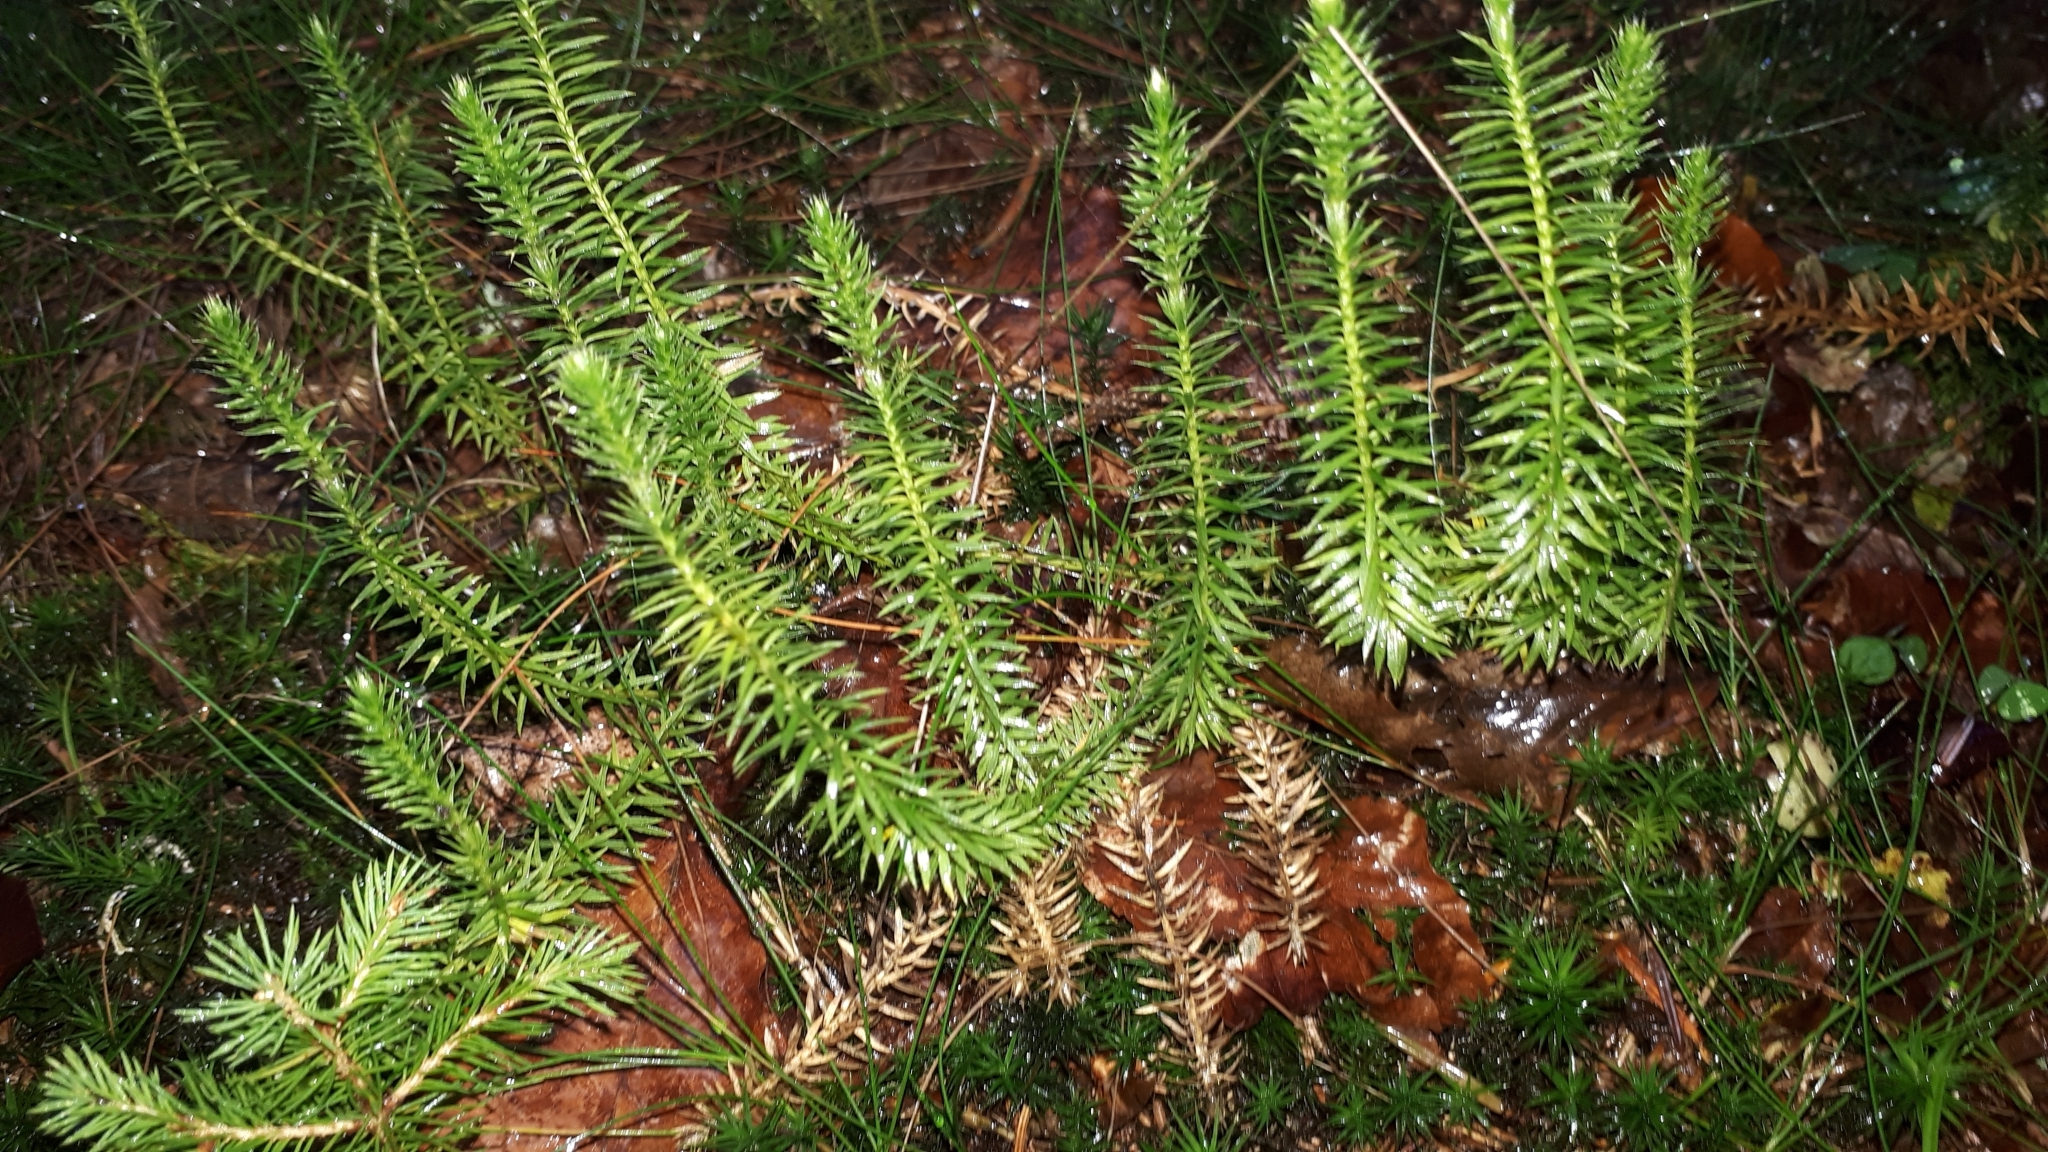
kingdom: Plantae
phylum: Tracheophyta
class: Lycopodiopsida
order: Lycopodiales
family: Lycopodiaceae
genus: Spinulum
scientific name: Spinulum annotinum
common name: Interrupted club-moss
